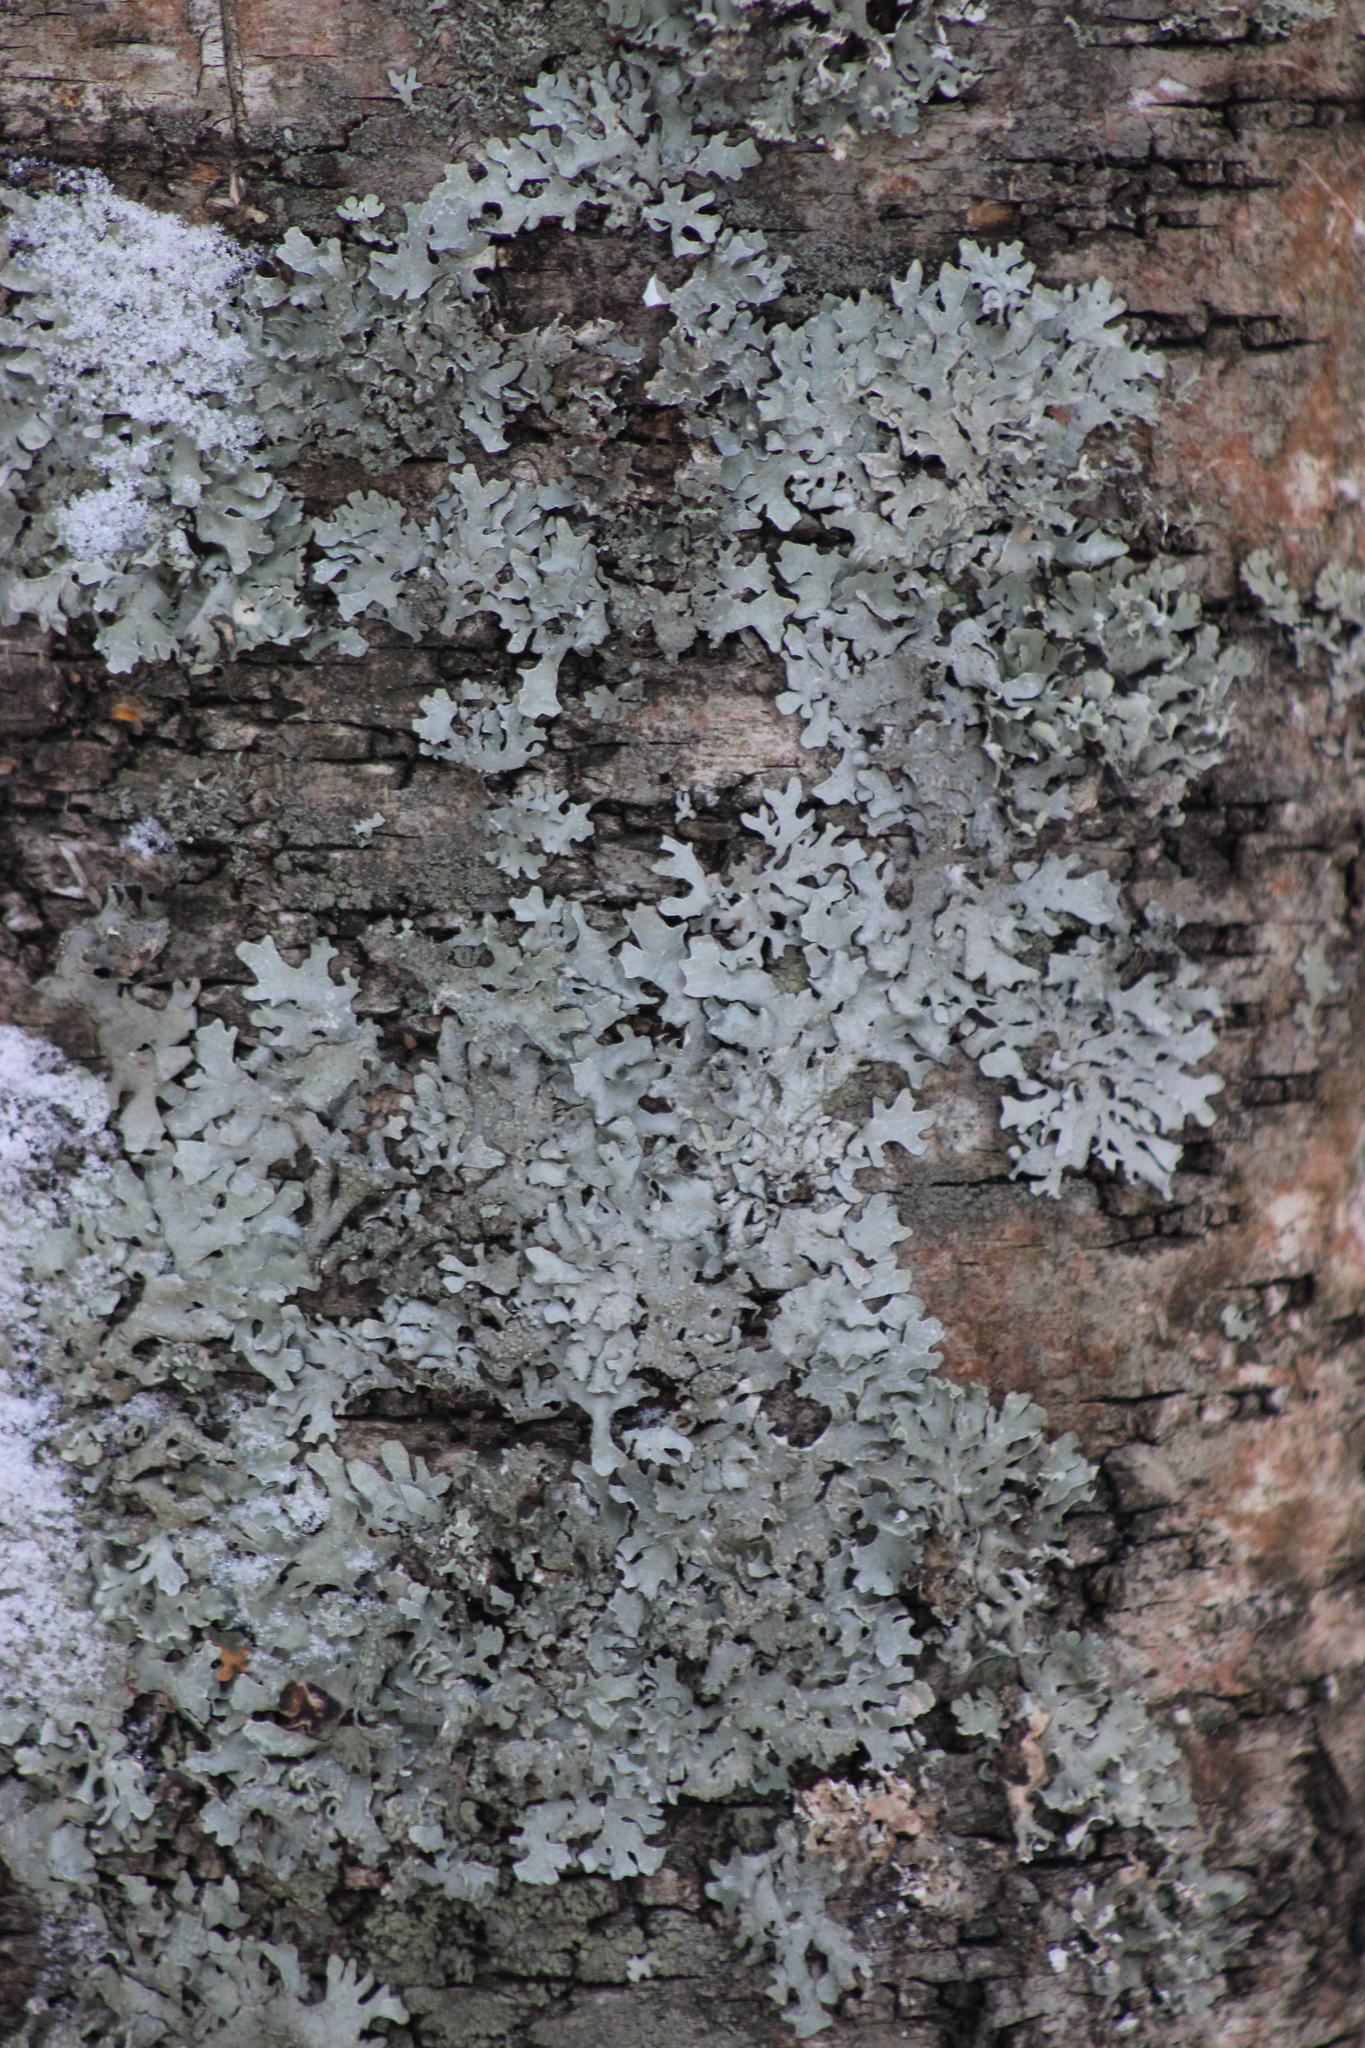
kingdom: Fungi
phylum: Ascomycota
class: Lecanoromycetes
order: Lecanorales
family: Parmeliaceae
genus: Parmelia
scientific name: Parmelia sulcata
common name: Netted shield lichen
